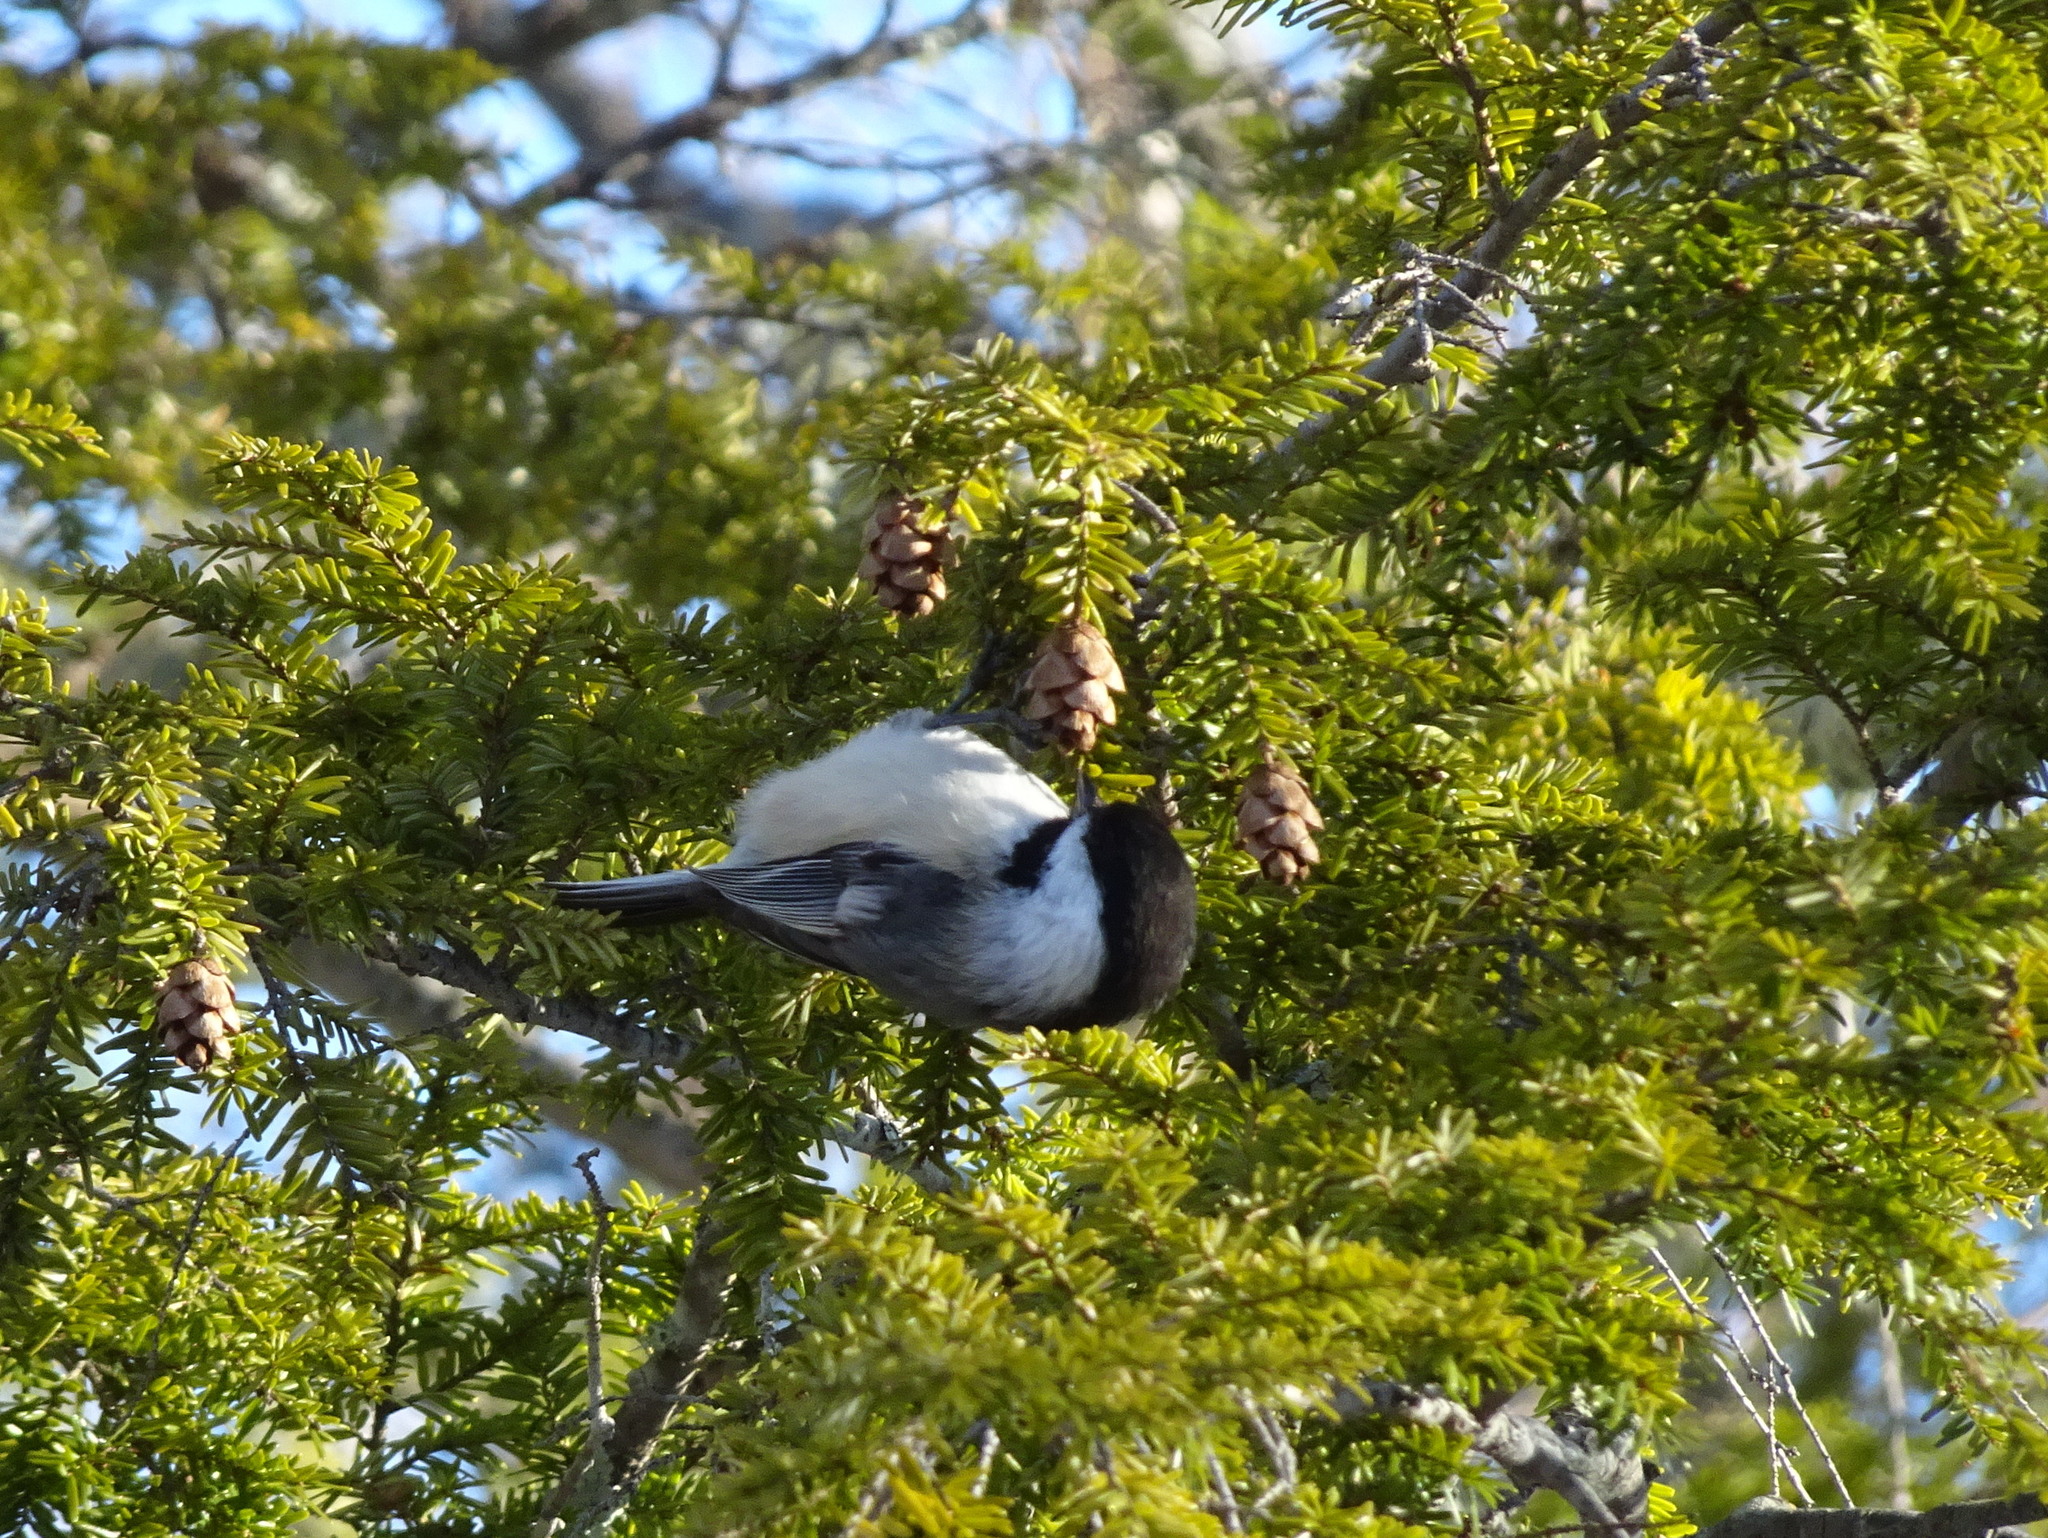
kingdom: Animalia
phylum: Chordata
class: Aves
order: Passeriformes
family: Paridae
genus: Poecile
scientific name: Poecile atricapillus
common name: Black-capped chickadee
